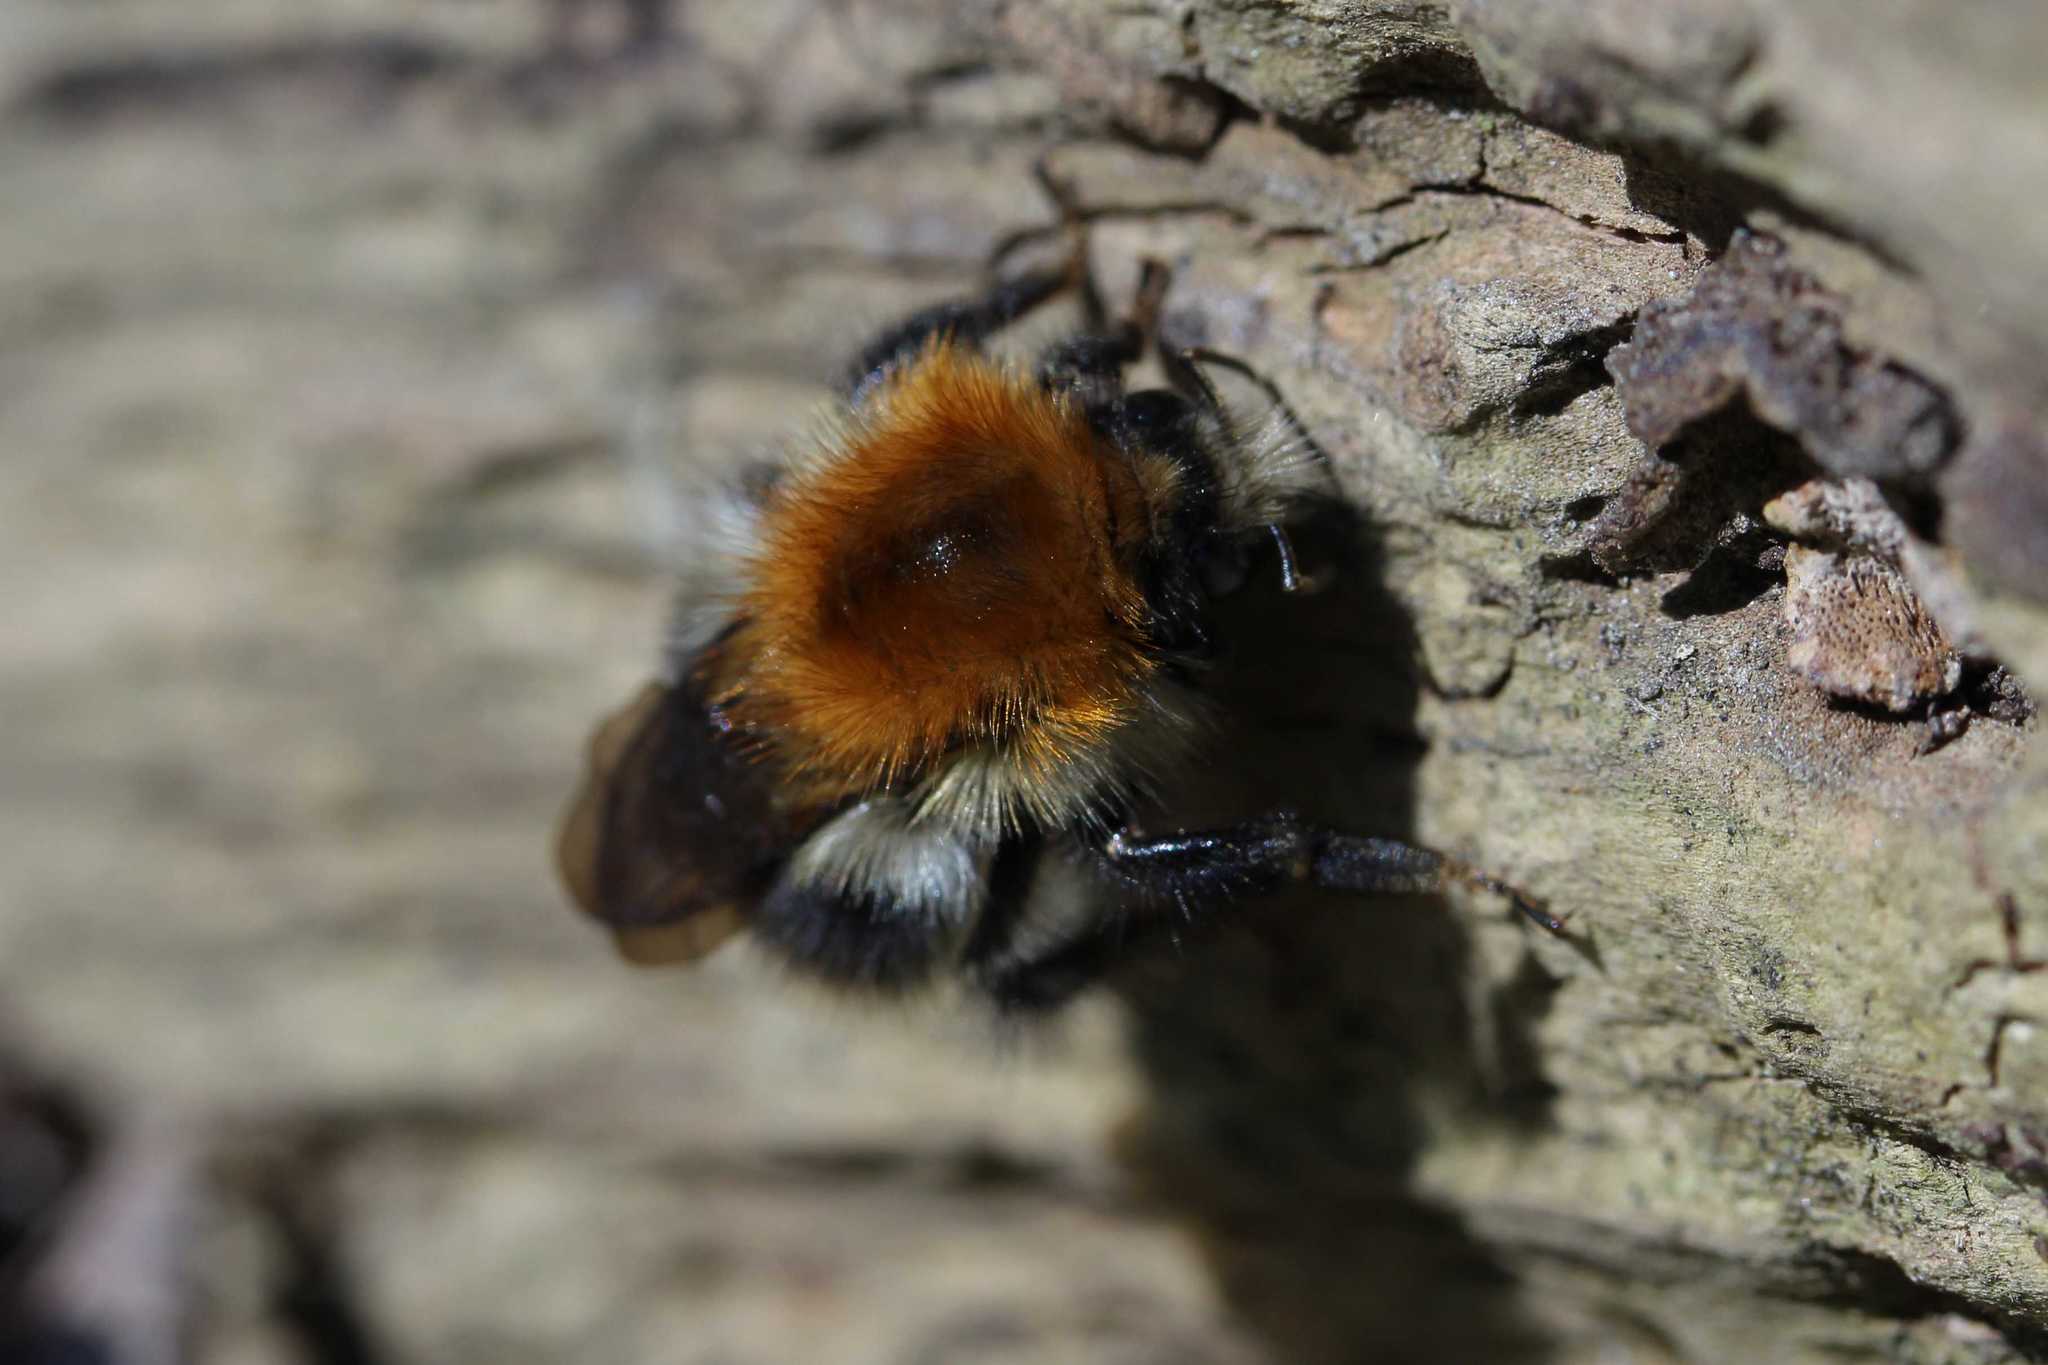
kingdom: Animalia
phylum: Arthropoda
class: Insecta
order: Hymenoptera
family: Apidae
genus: Bombus
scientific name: Bombus pascuorum
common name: Common carder bee
